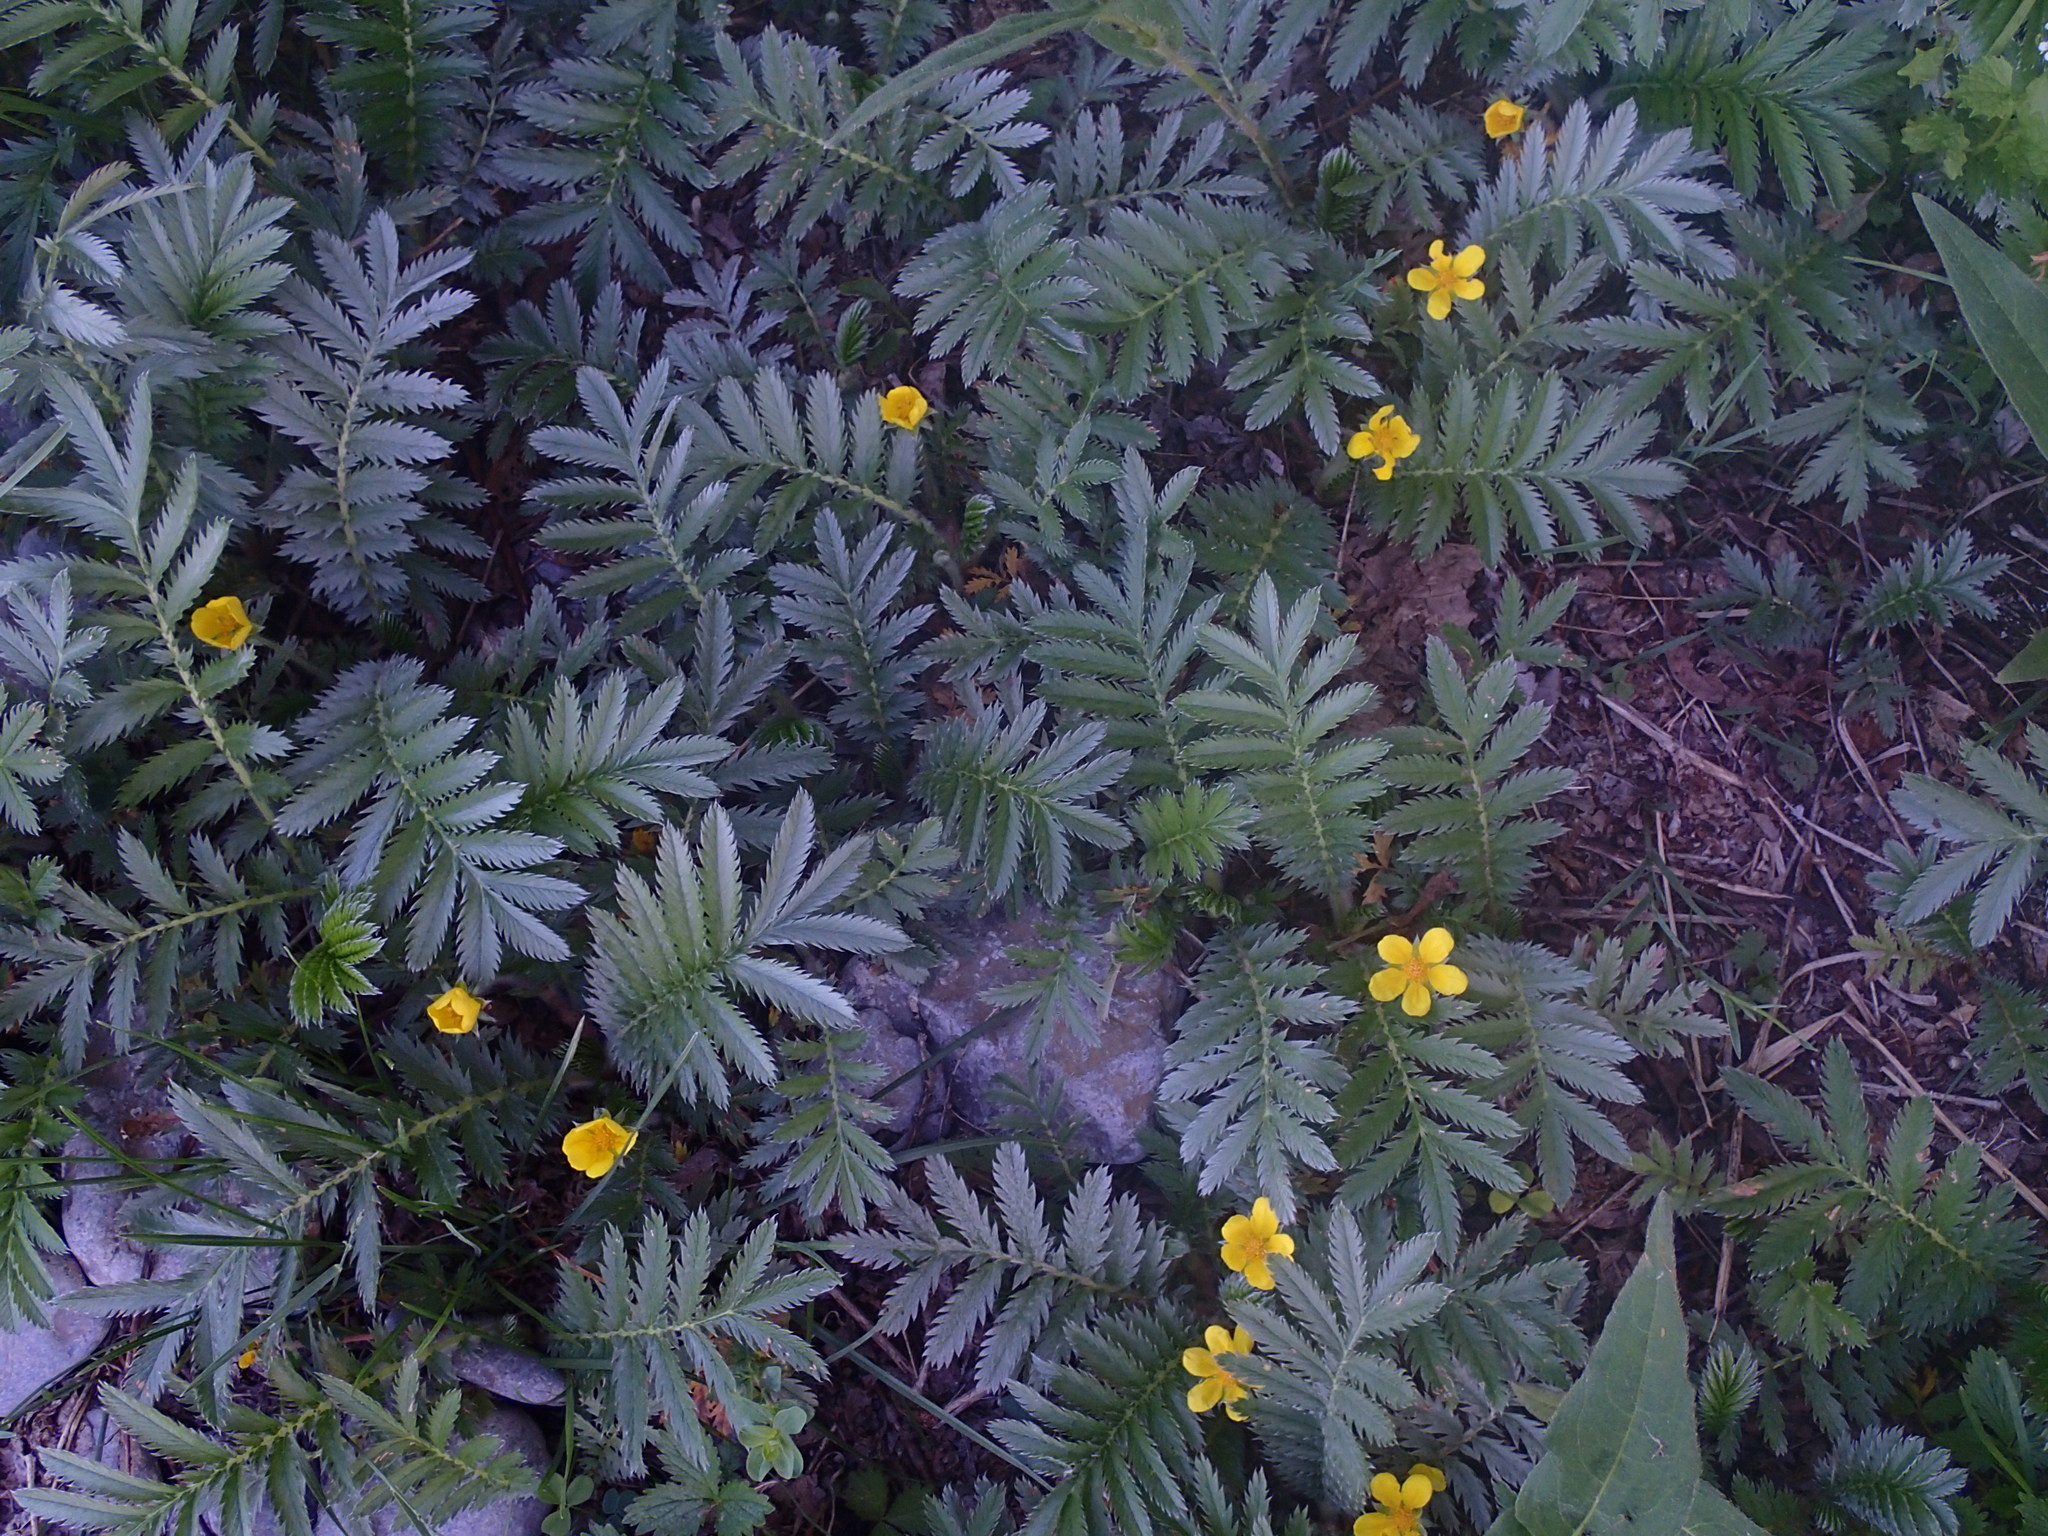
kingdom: Plantae
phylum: Tracheophyta
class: Magnoliopsida
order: Rosales
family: Rosaceae
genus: Argentina
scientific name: Argentina anserina
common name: Common silverweed
